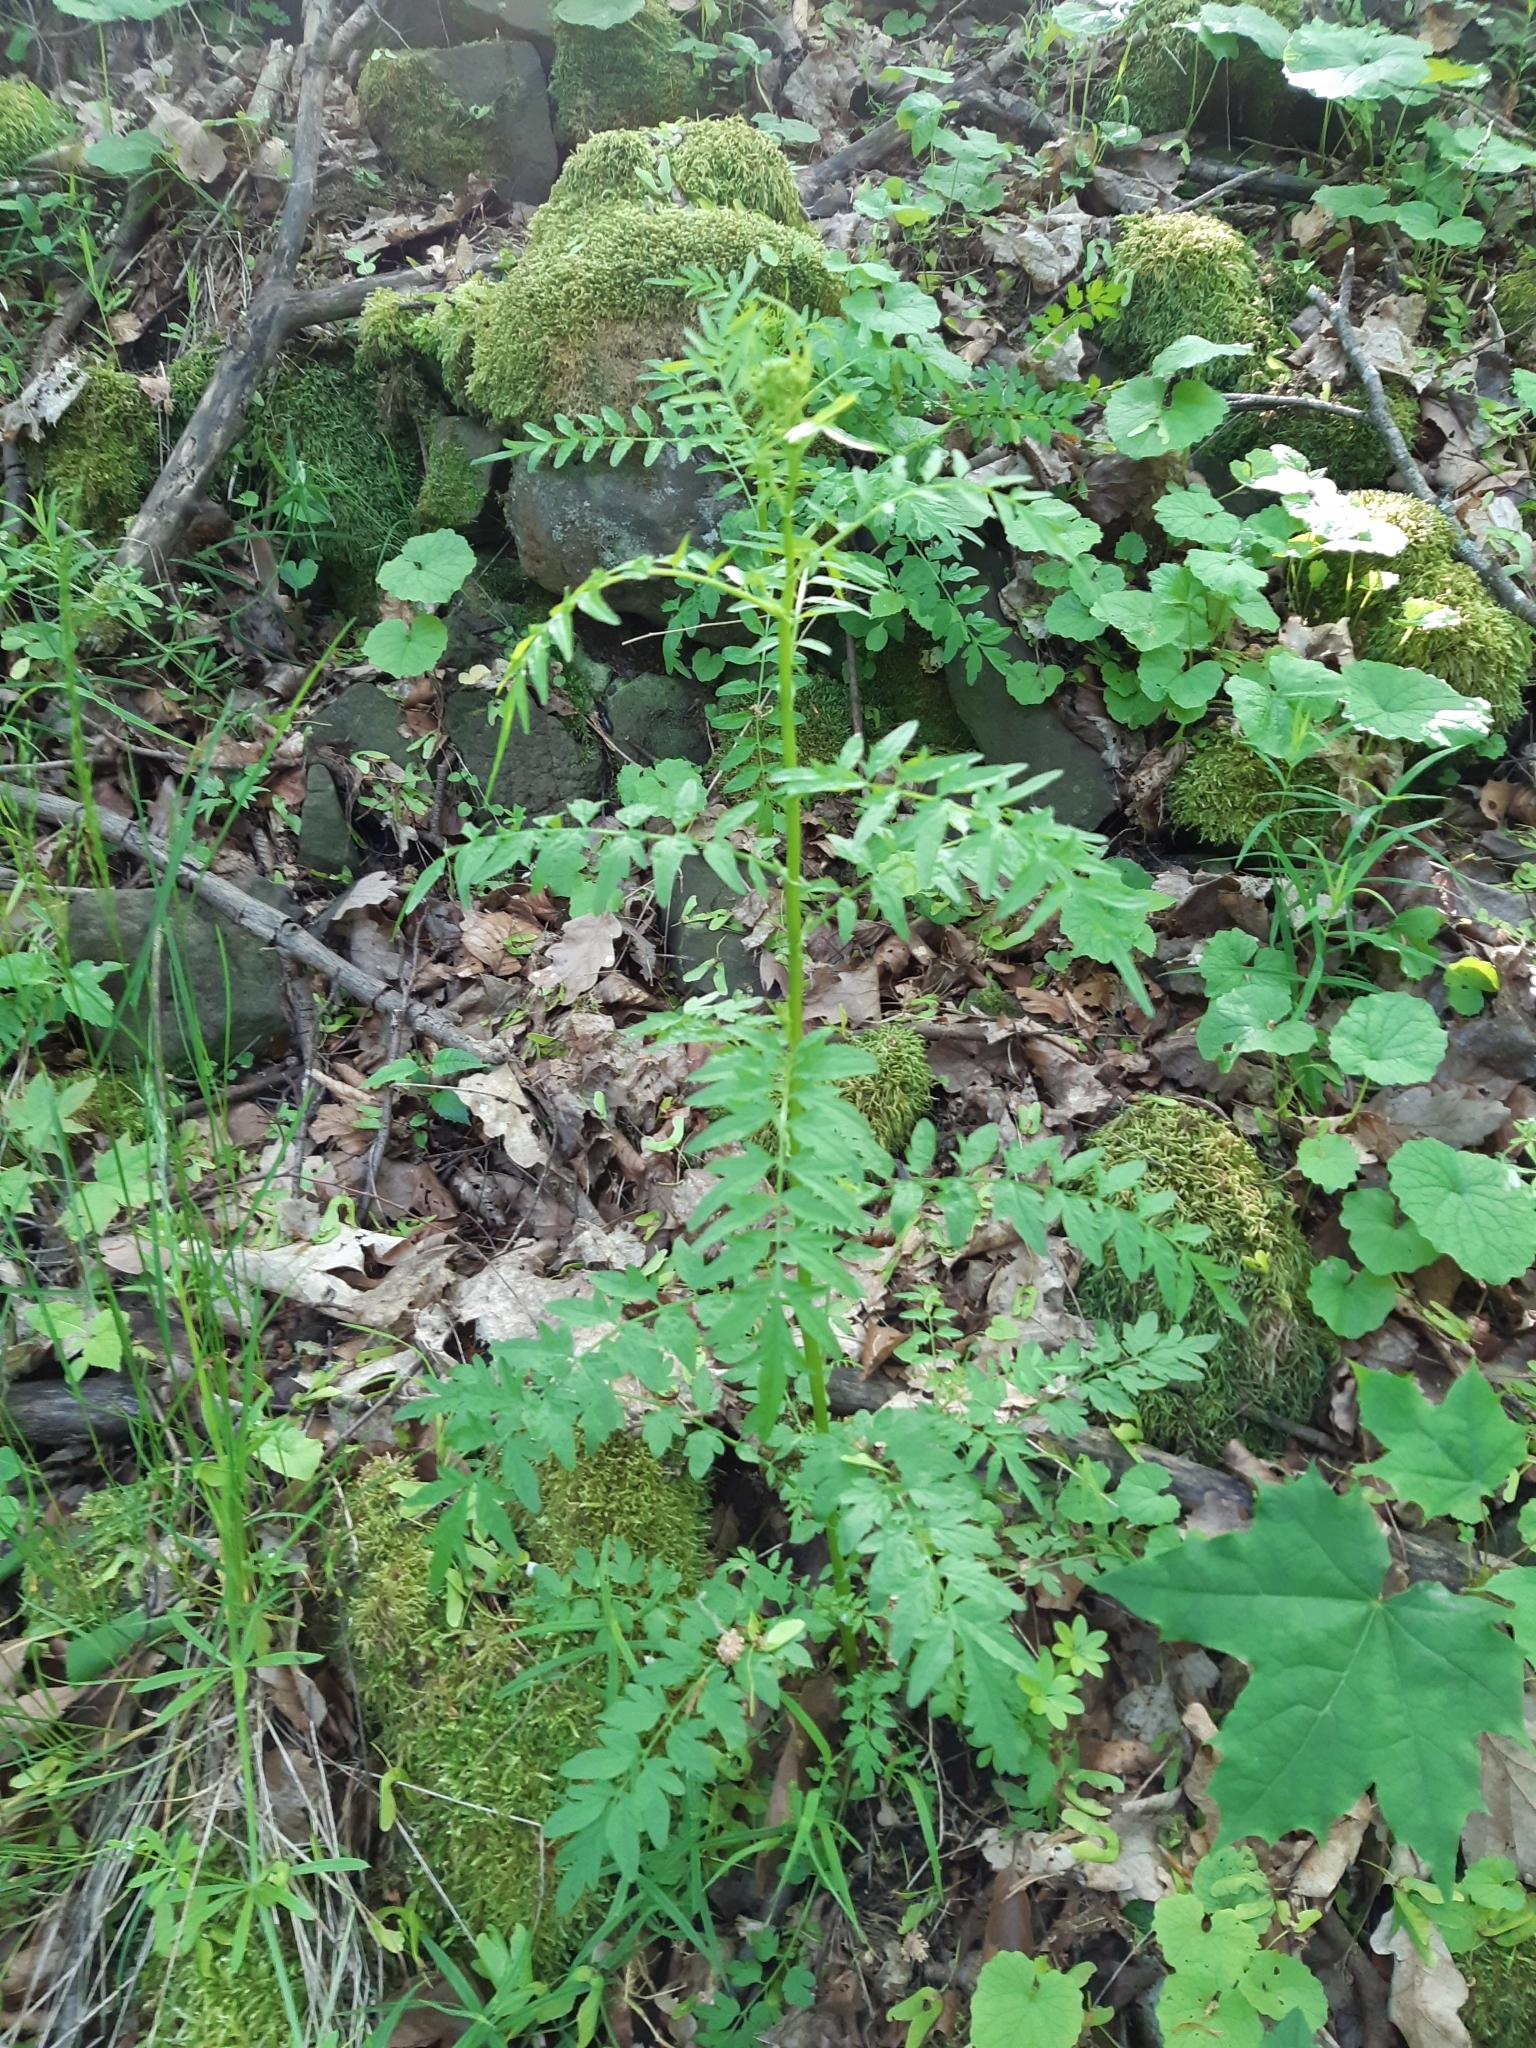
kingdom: Plantae
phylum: Tracheophyta
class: Magnoliopsida
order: Brassicales
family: Brassicaceae
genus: Cardamine
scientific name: Cardamine impatiens
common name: Narrow-leaved bitter-cress
